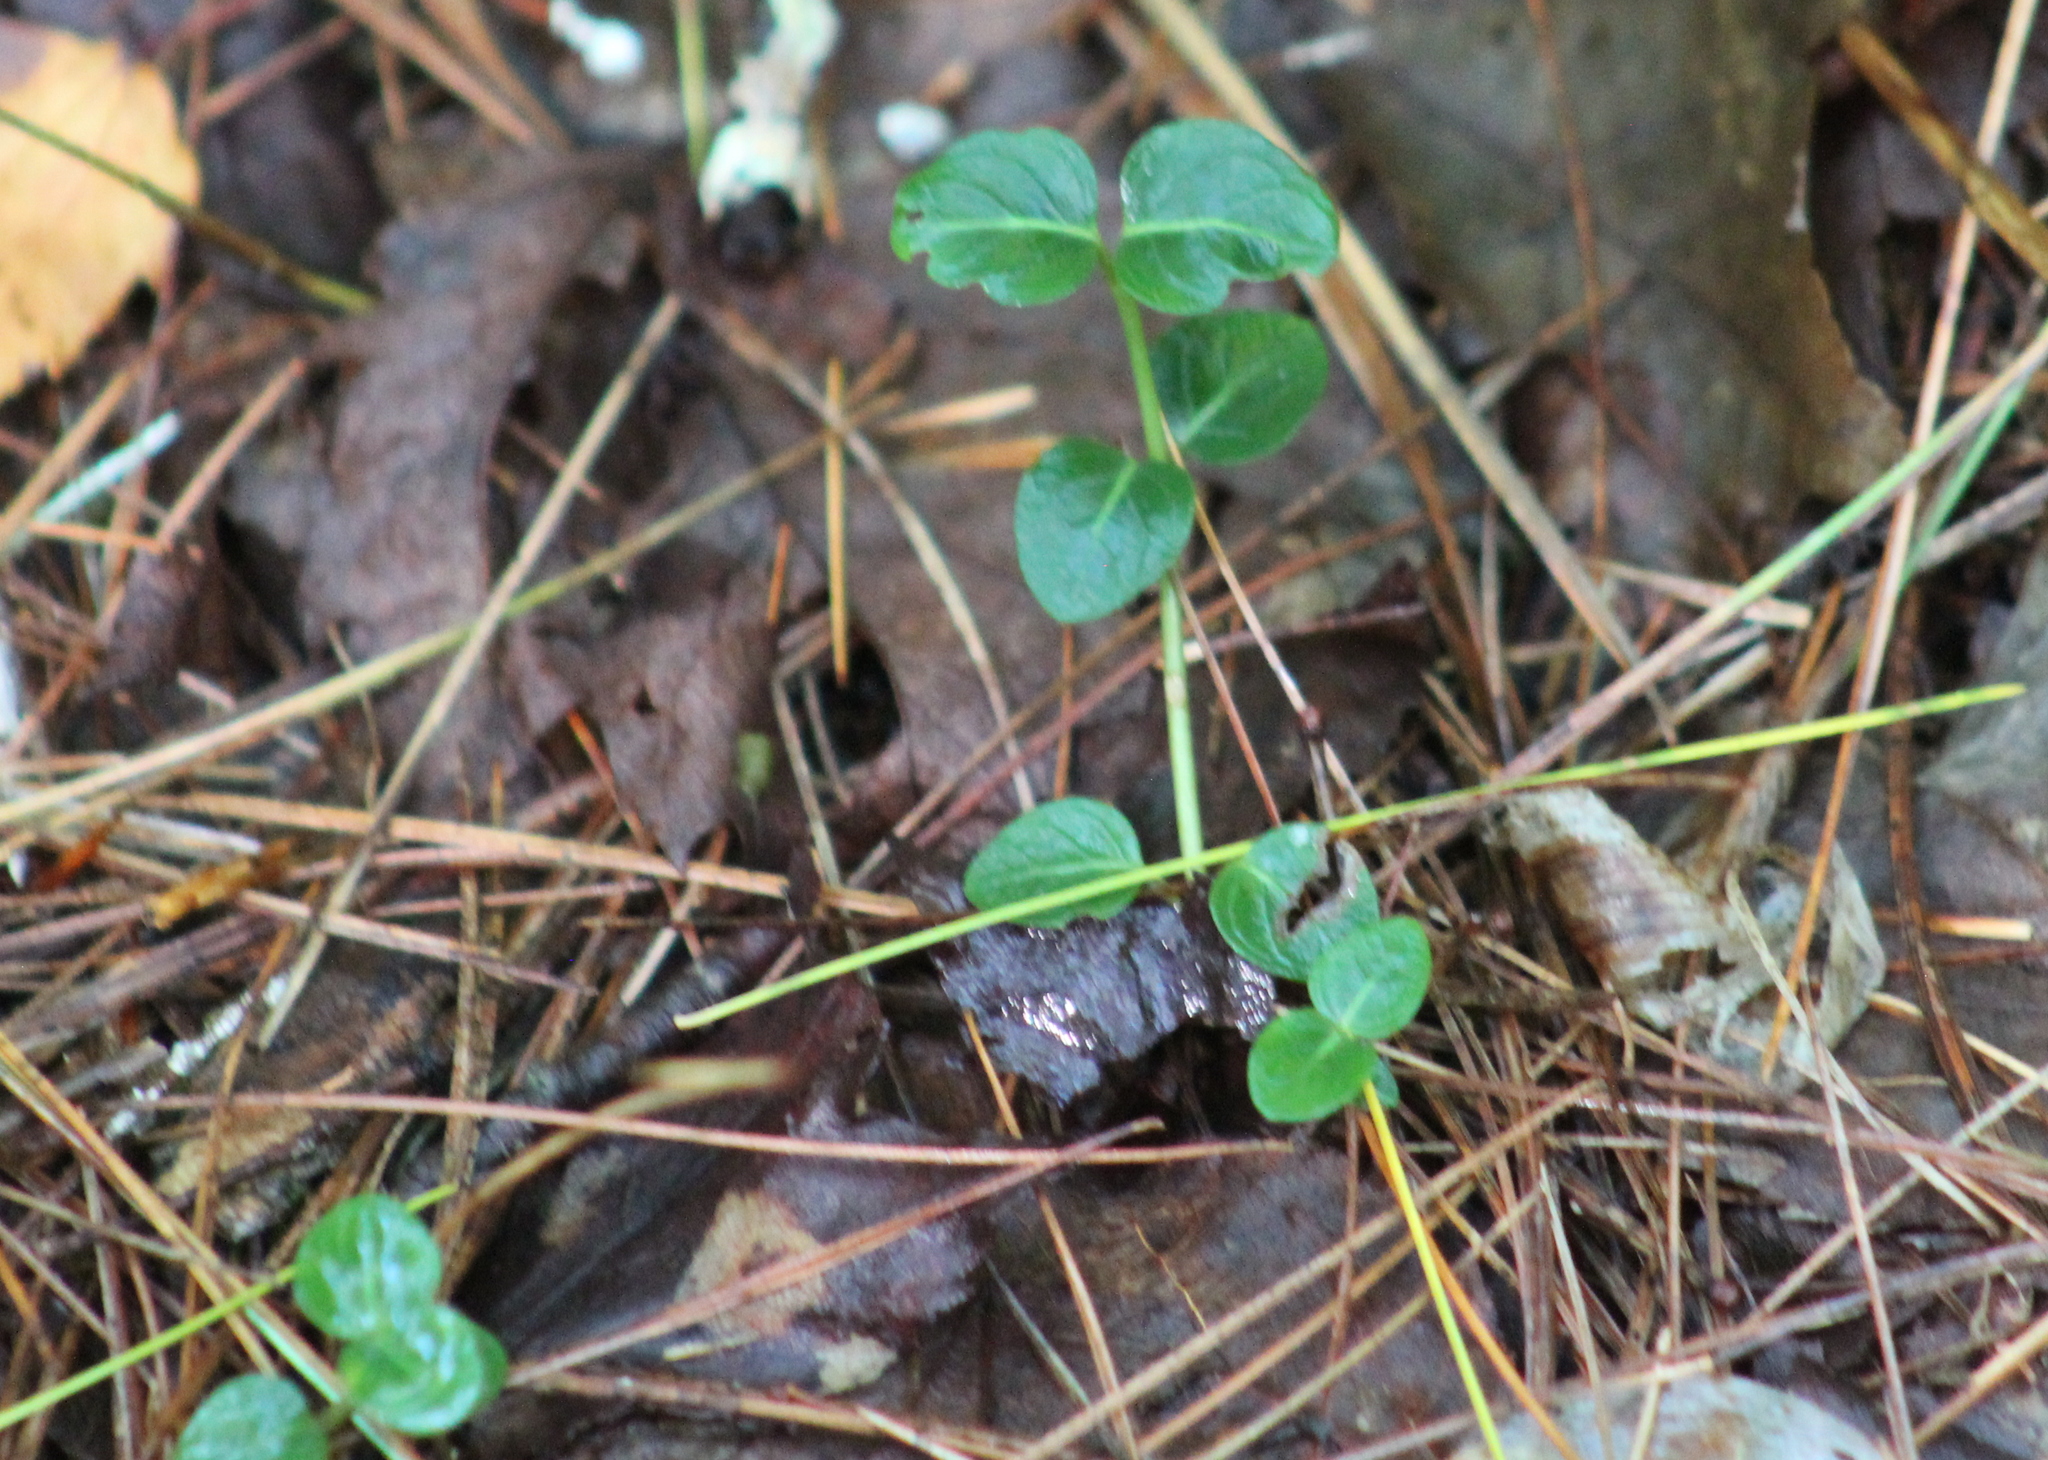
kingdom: Plantae
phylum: Tracheophyta
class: Magnoliopsida
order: Gentianales
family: Rubiaceae
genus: Mitchella
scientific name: Mitchella repens
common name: Partridge-berry
